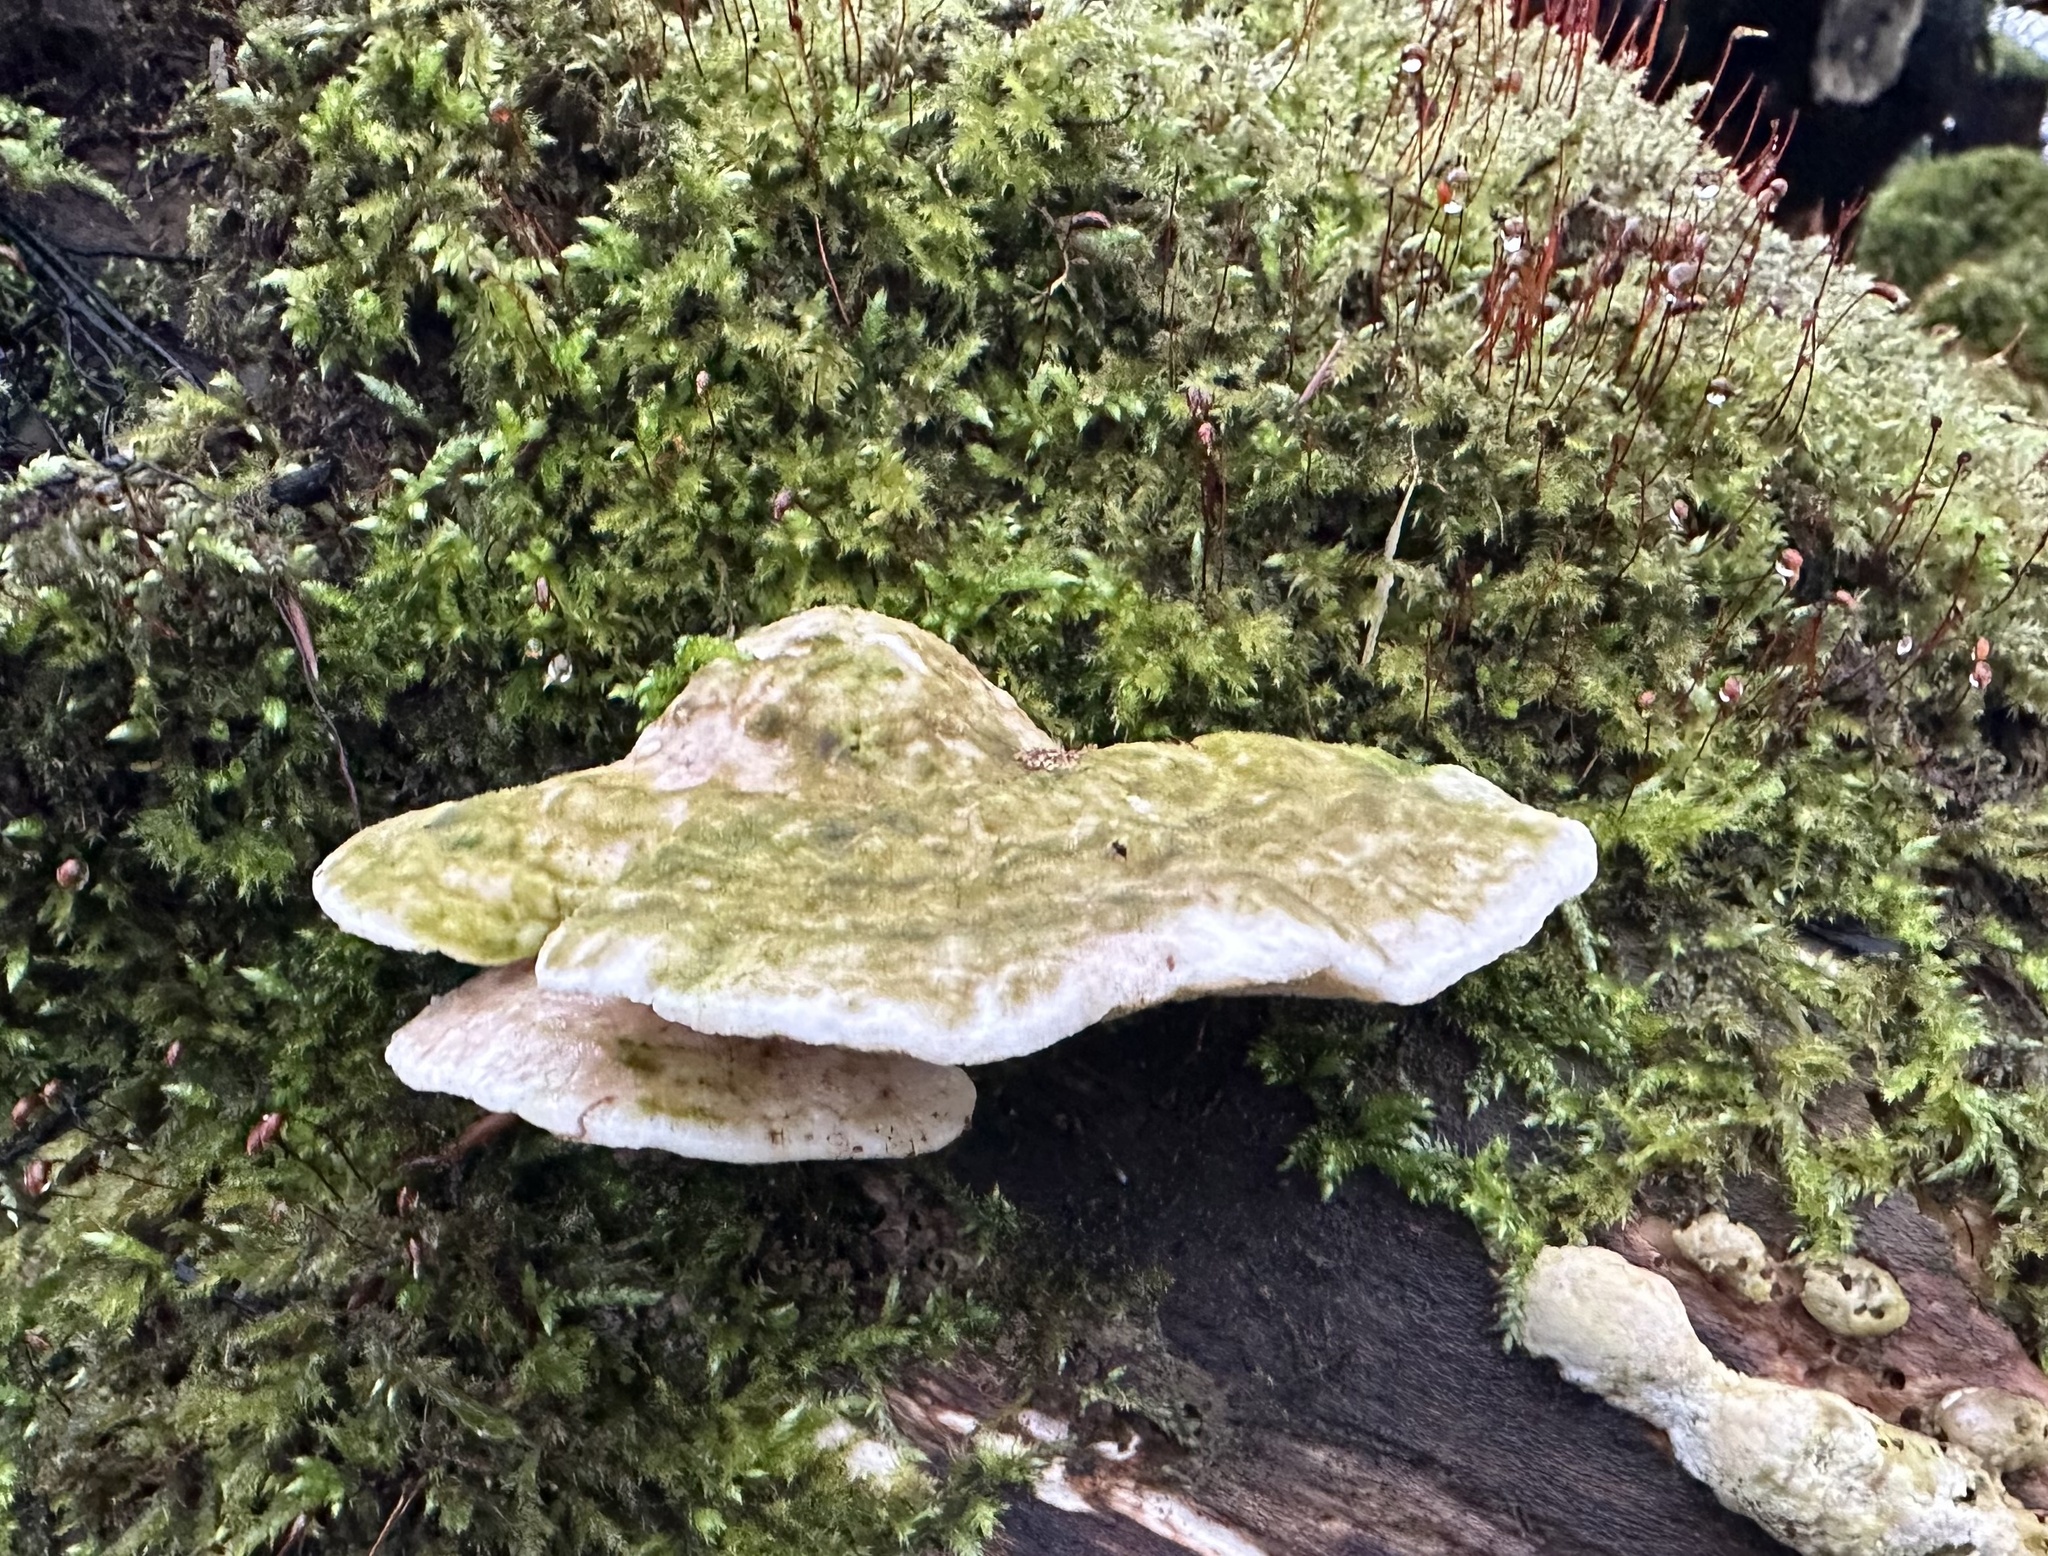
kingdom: Fungi
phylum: Basidiomycota
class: Agaricomycetes
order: Polyporales
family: Polyporaceae
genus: Trametes
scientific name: Trametes gibbosa
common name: Lumpy bracket
